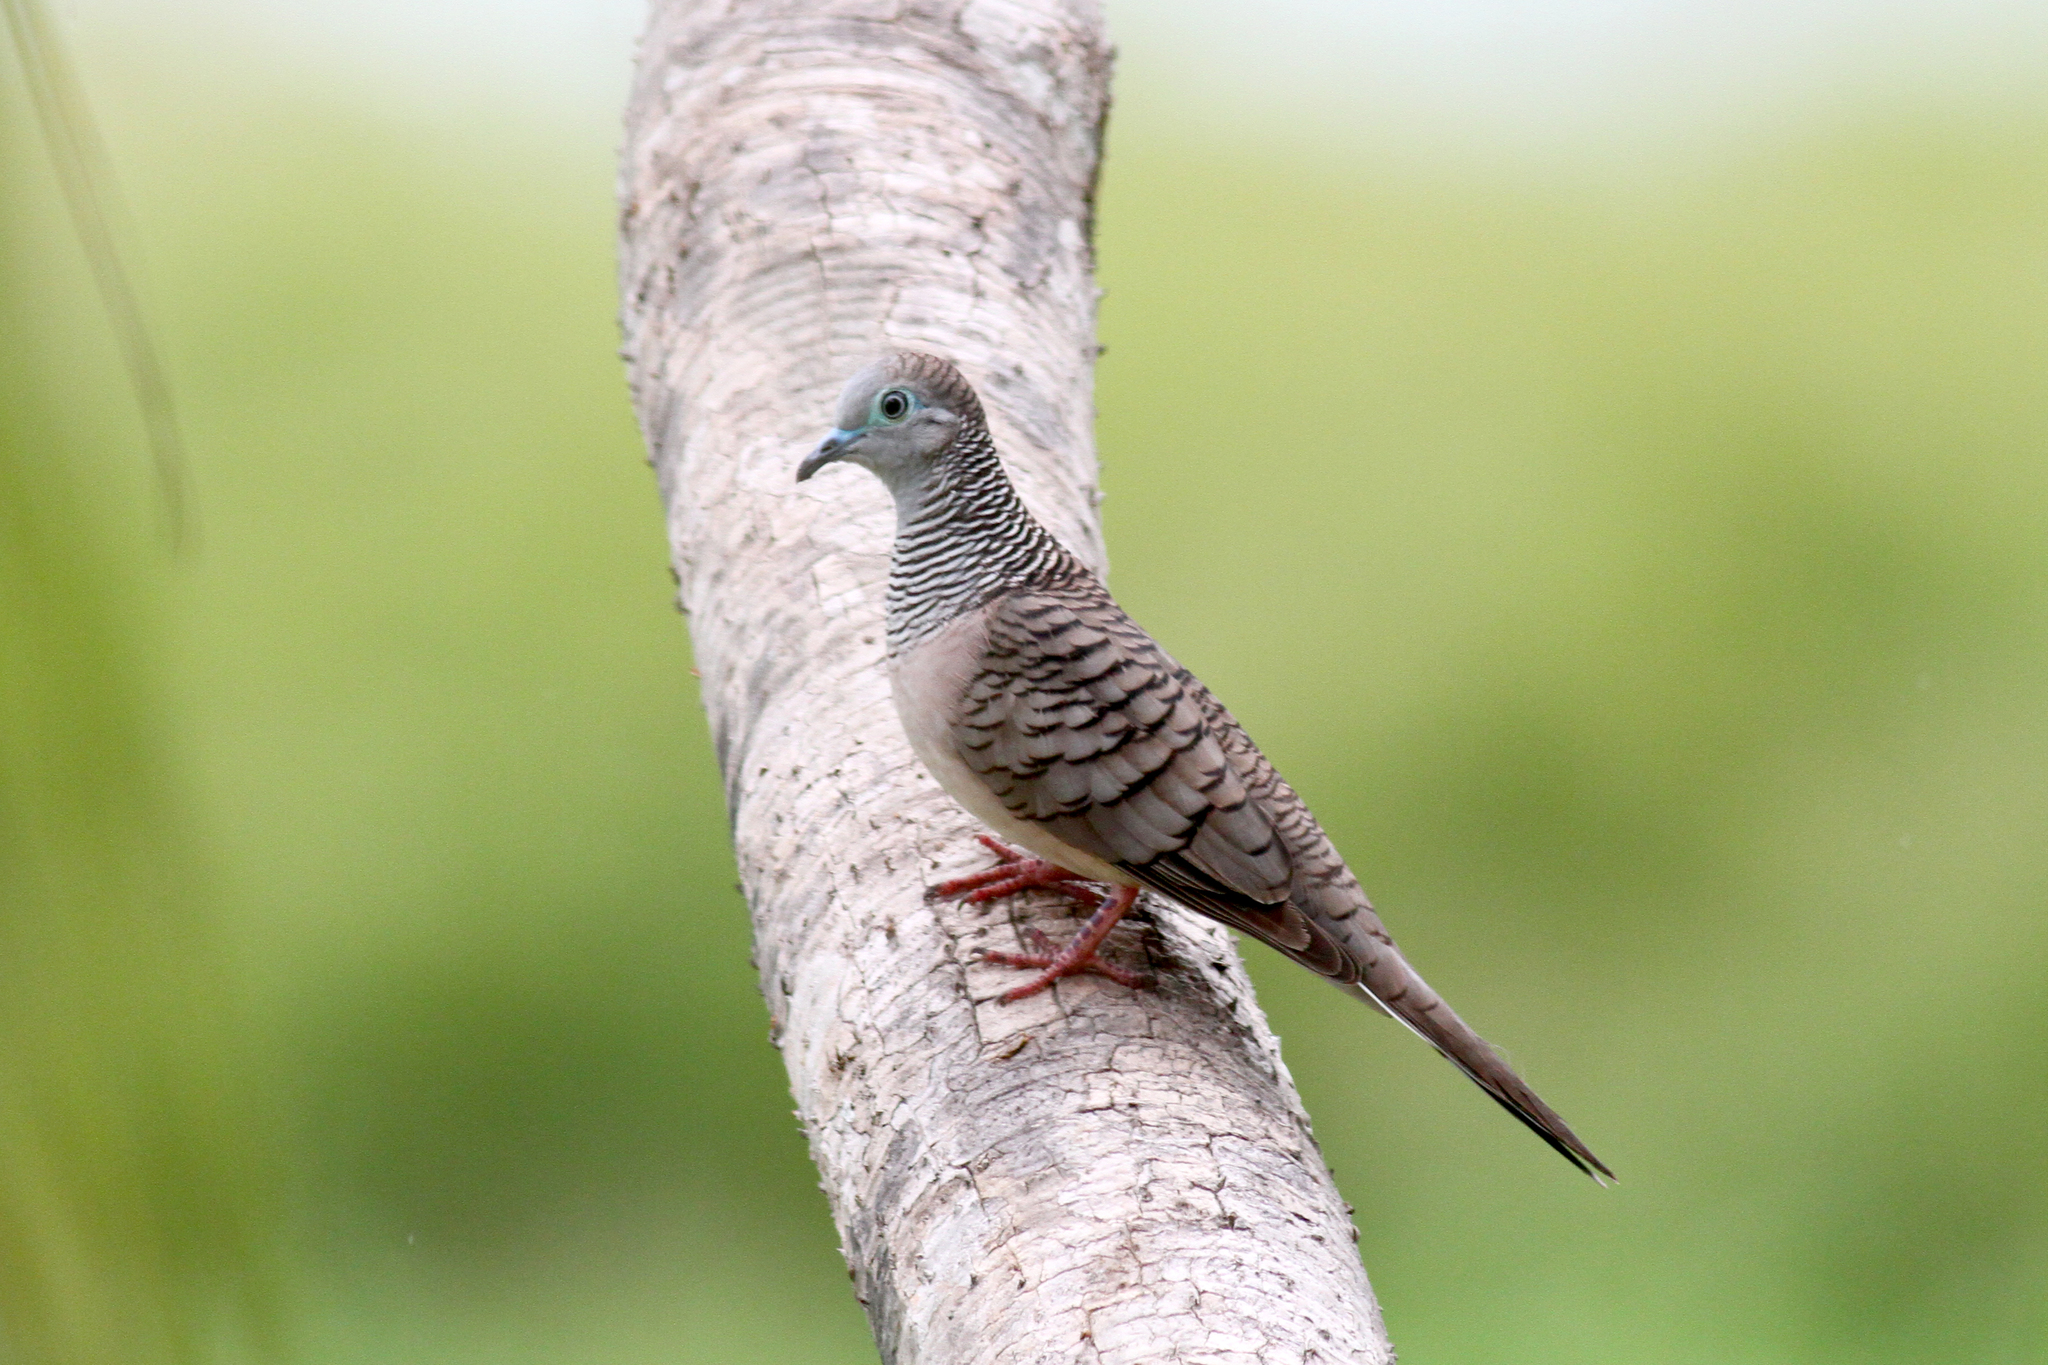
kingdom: Animalia
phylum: Chordata
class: Aves
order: Columbiformes
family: Columbidae
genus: Geopelia
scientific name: Geopelia placida
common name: Peaceful dove
